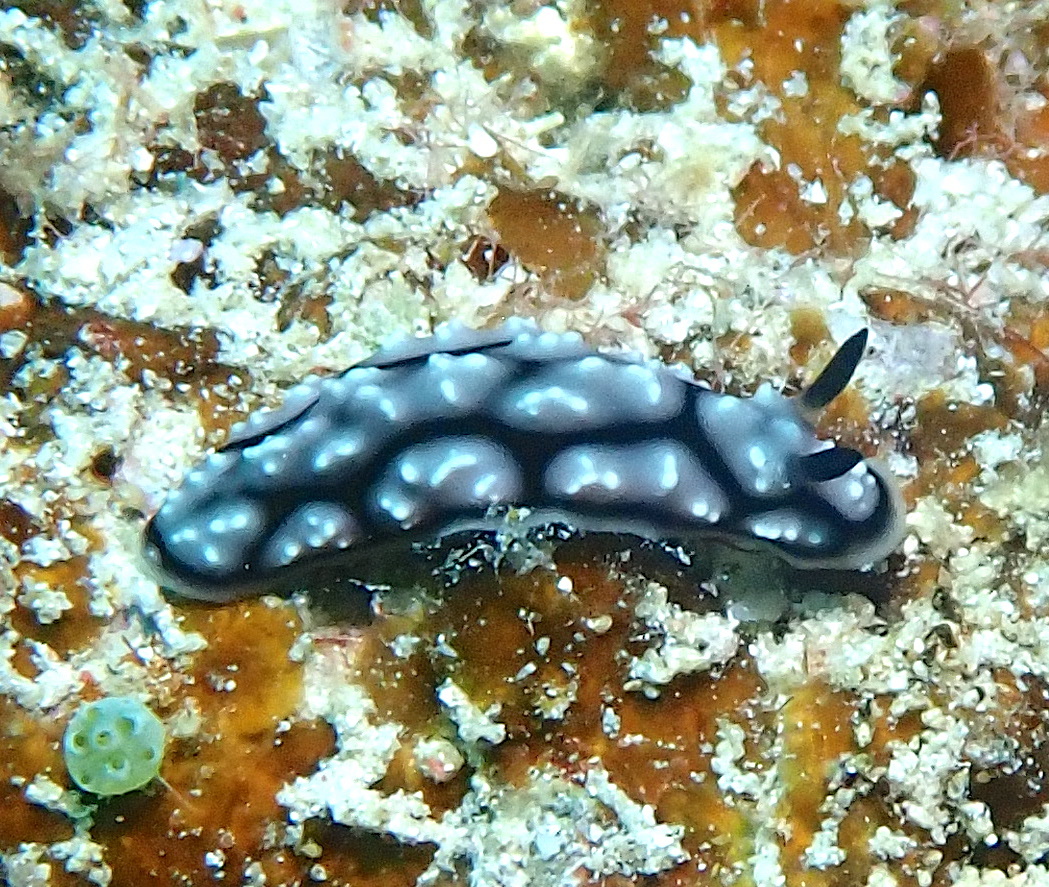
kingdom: Animalia
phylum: Mollusca
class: Gastropoda
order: Nudibranchia
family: Phyllidiidae
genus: Phyllidiella
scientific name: Phyllidiella pustulosa
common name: Pustular phyllidia
